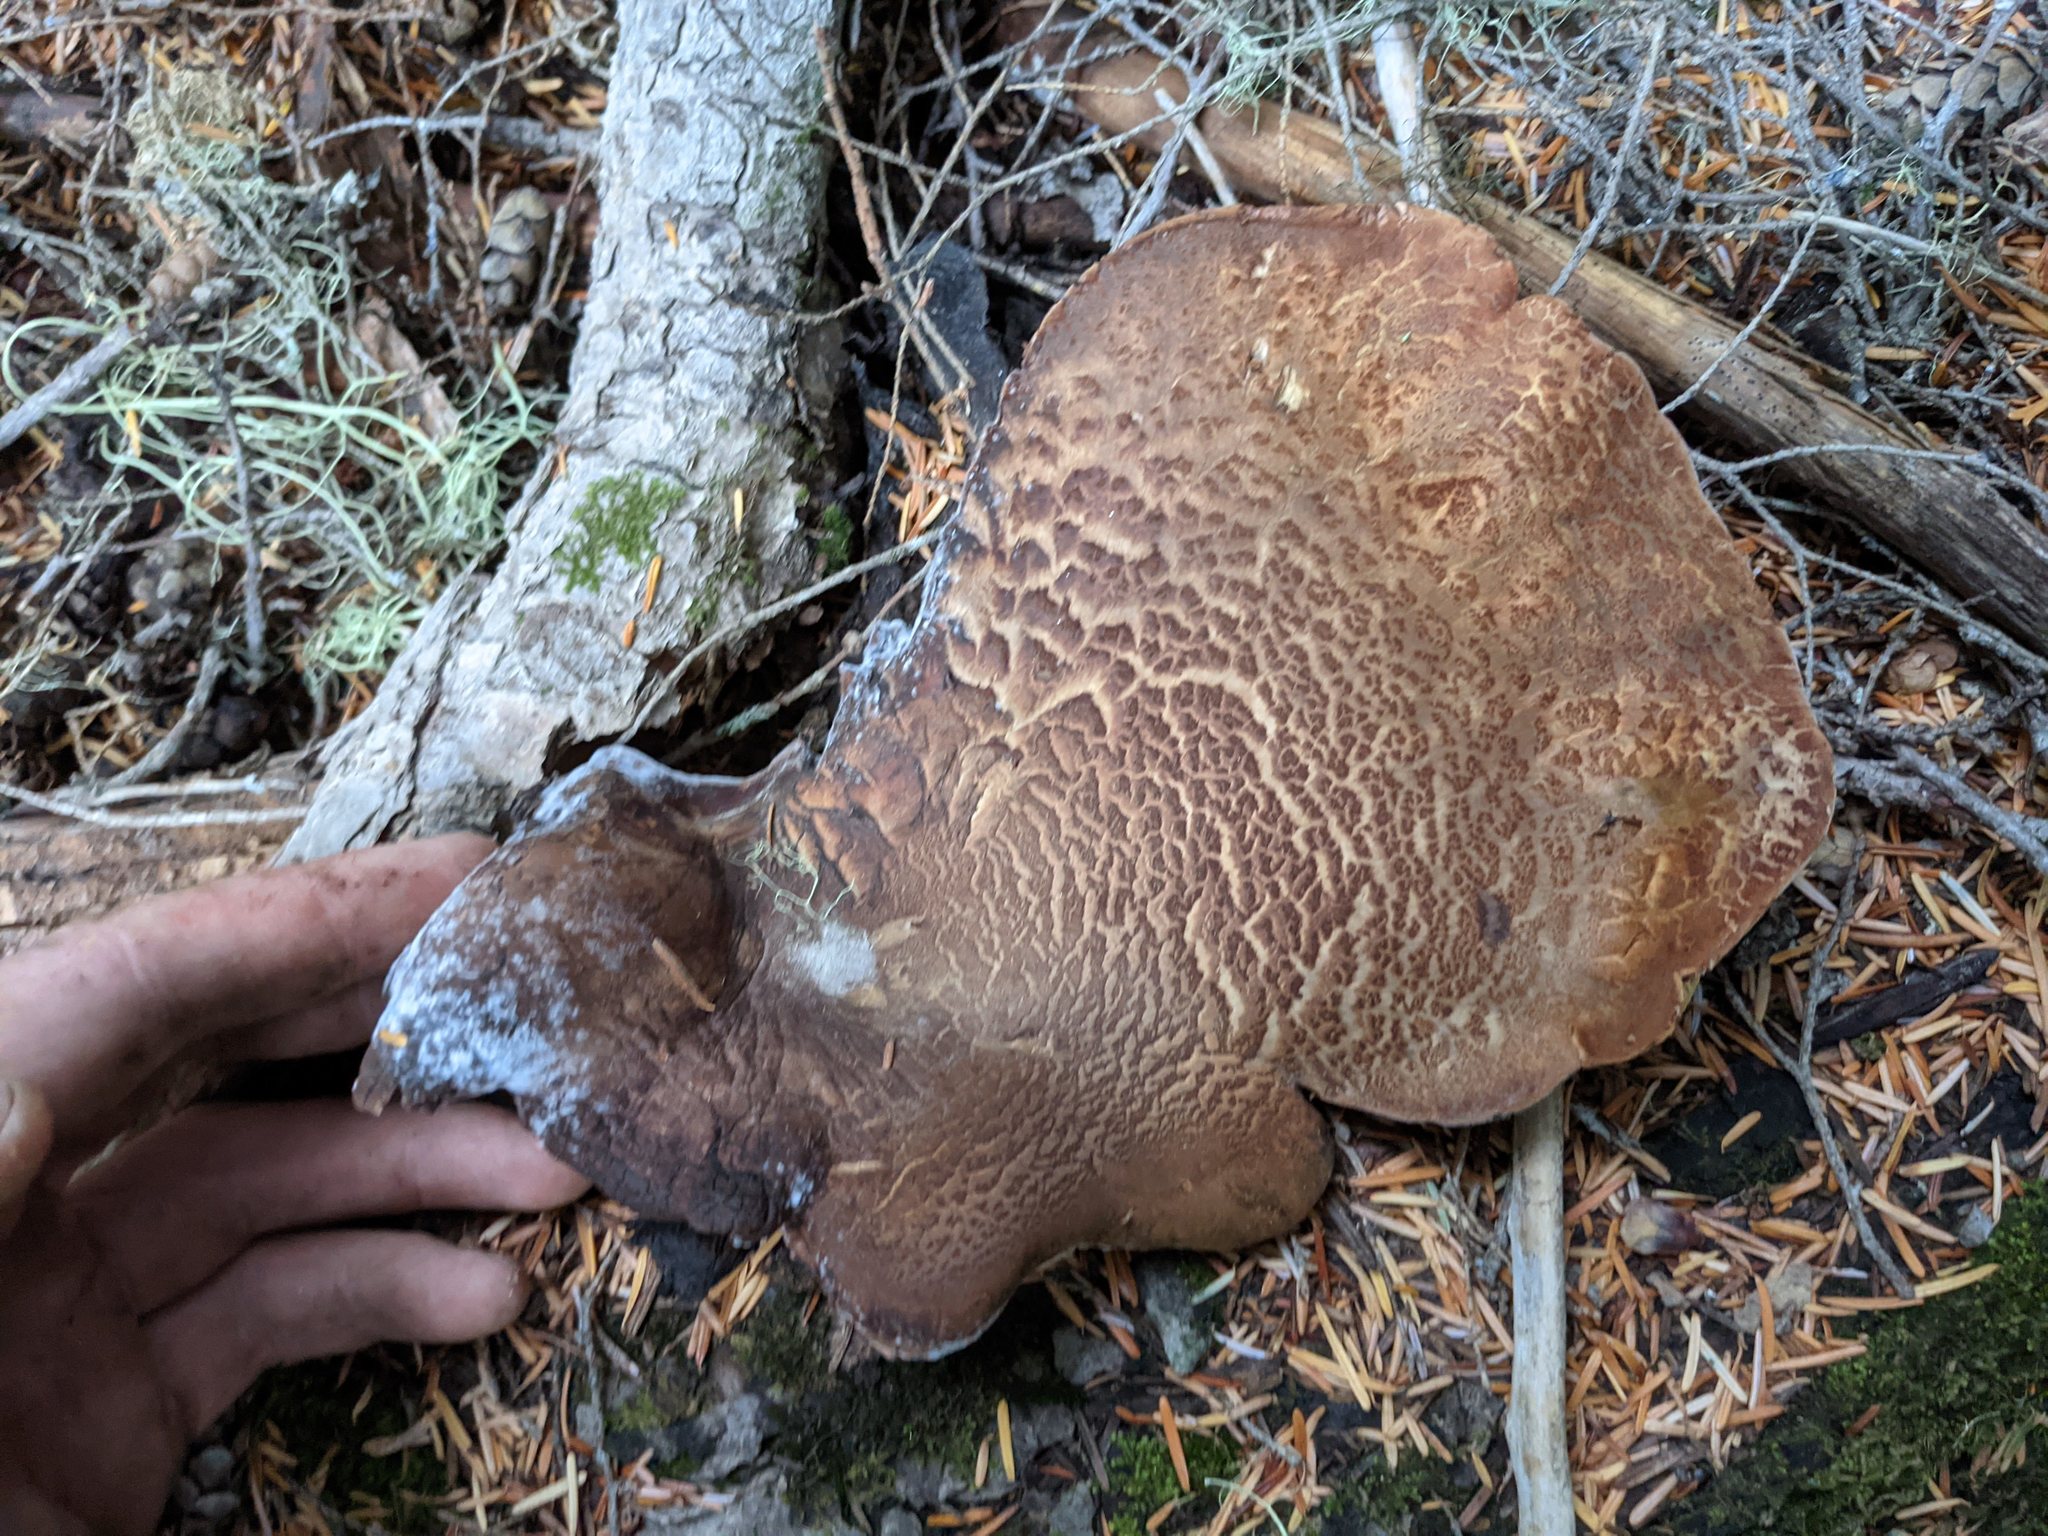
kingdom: Fungi
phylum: Basidiomycota
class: Agaricomycetes
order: Boletales
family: Tapinellaceae
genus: Tapinella
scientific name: Tapinella atrotomentosa
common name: Velvet rollrim
